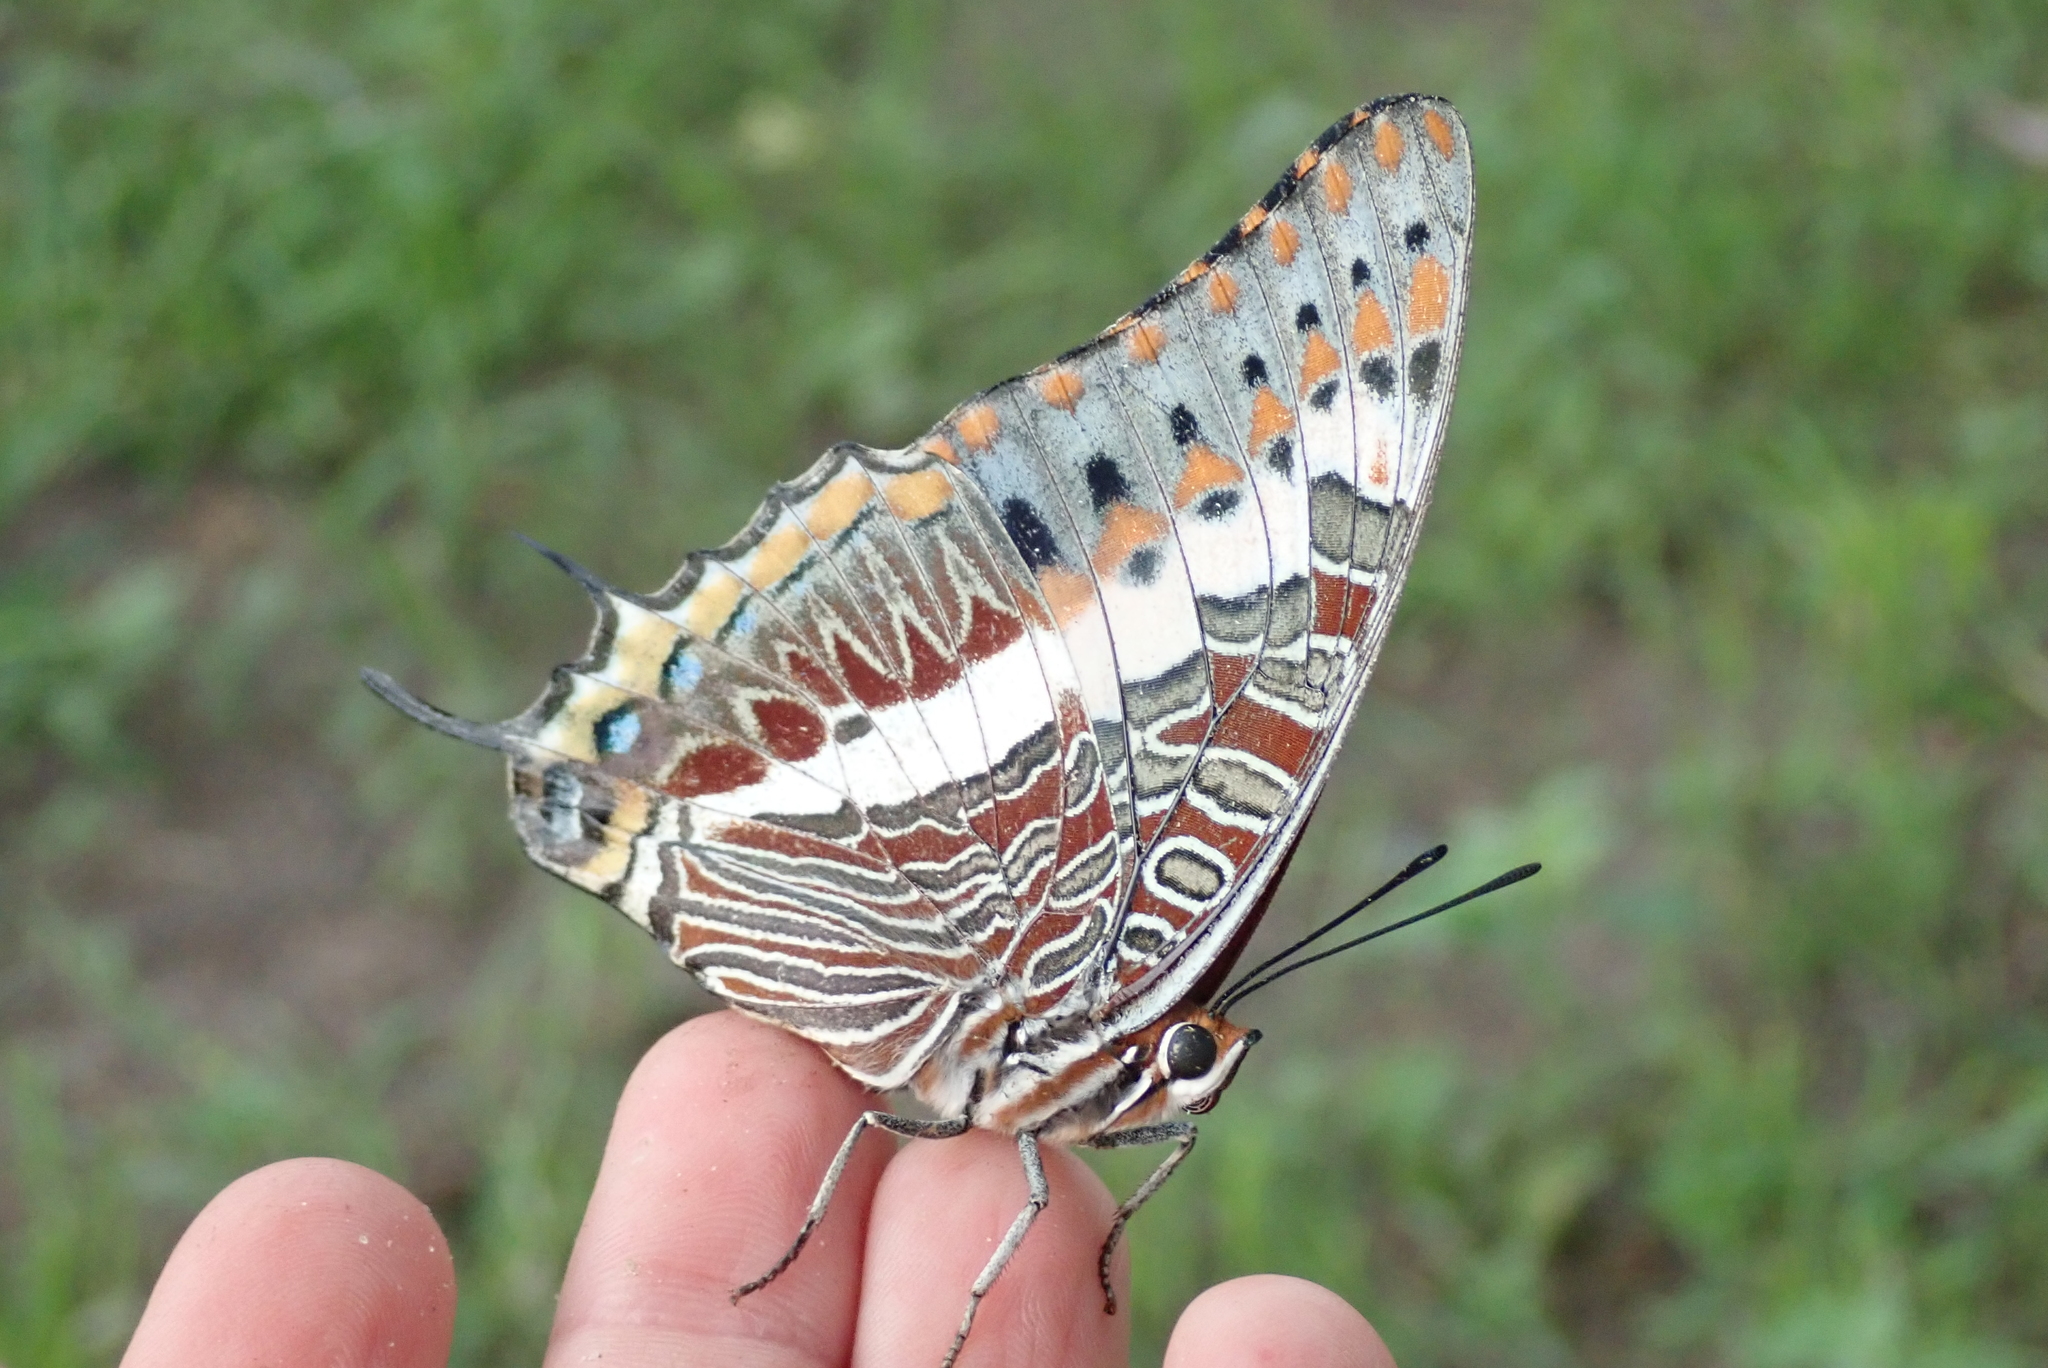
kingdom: Animalia
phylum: Arthropoda
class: Insecta
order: Lepidoptera
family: Nymphalidae
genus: Charaxes
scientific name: Charaxes jasius
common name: Two tailed pasha
